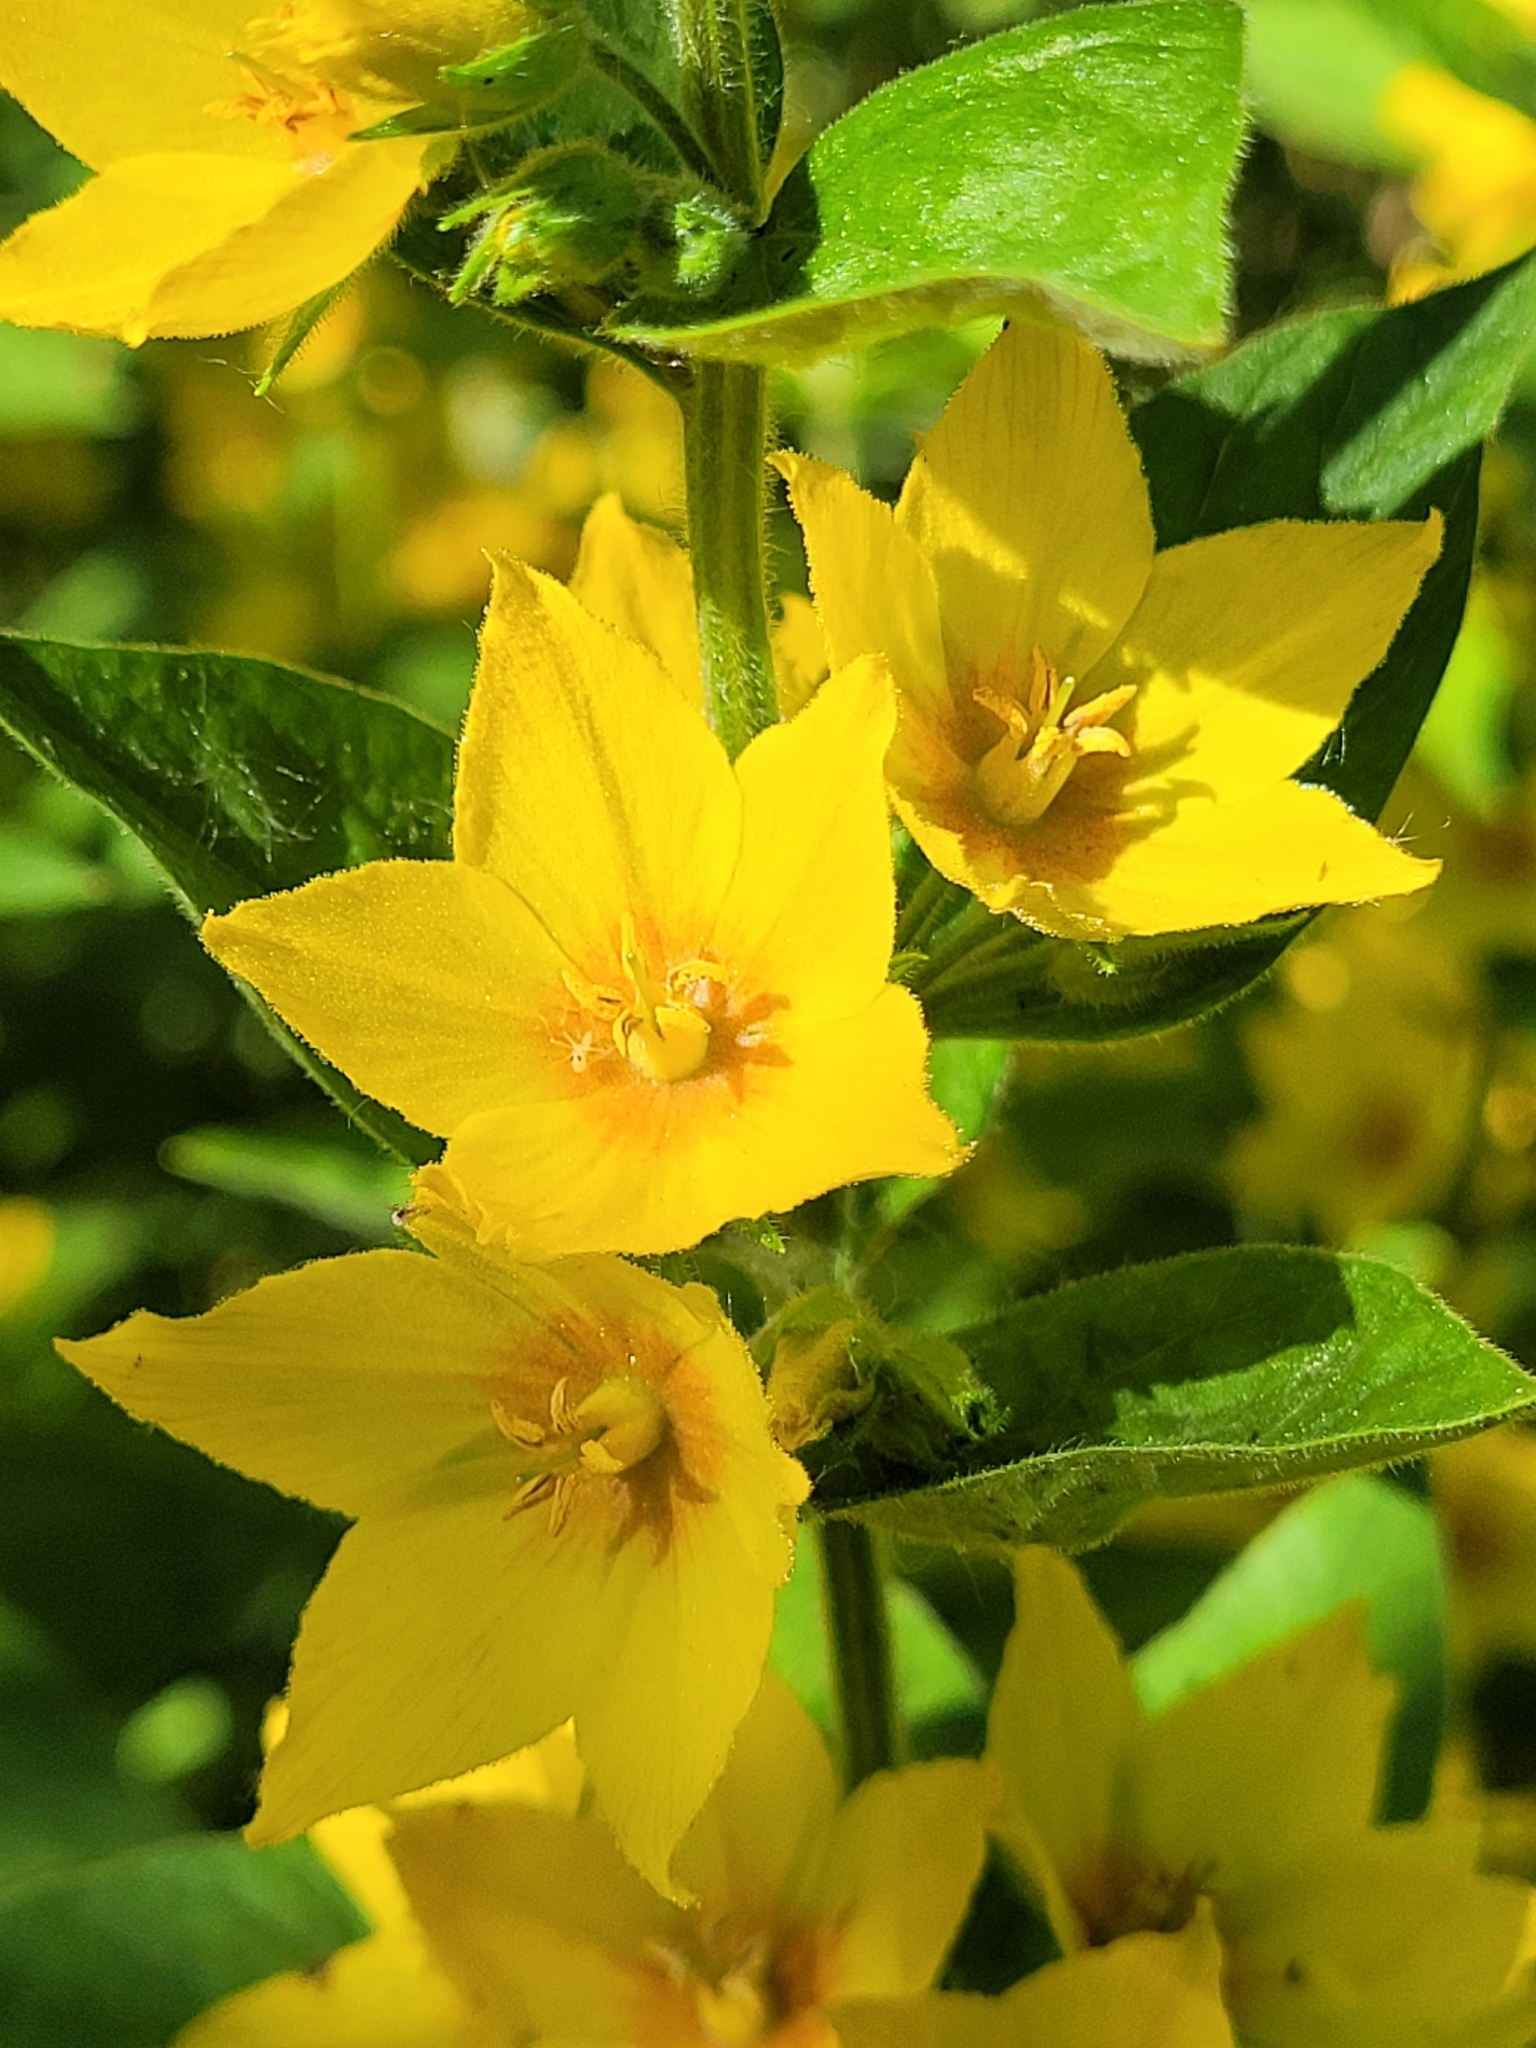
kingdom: Plantae
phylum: Tracheophyta
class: Magnoliopsida
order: Ericales
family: Primulaceae
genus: Lysimachia
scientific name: Lysimachia punctata
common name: Dotted loosestrife
